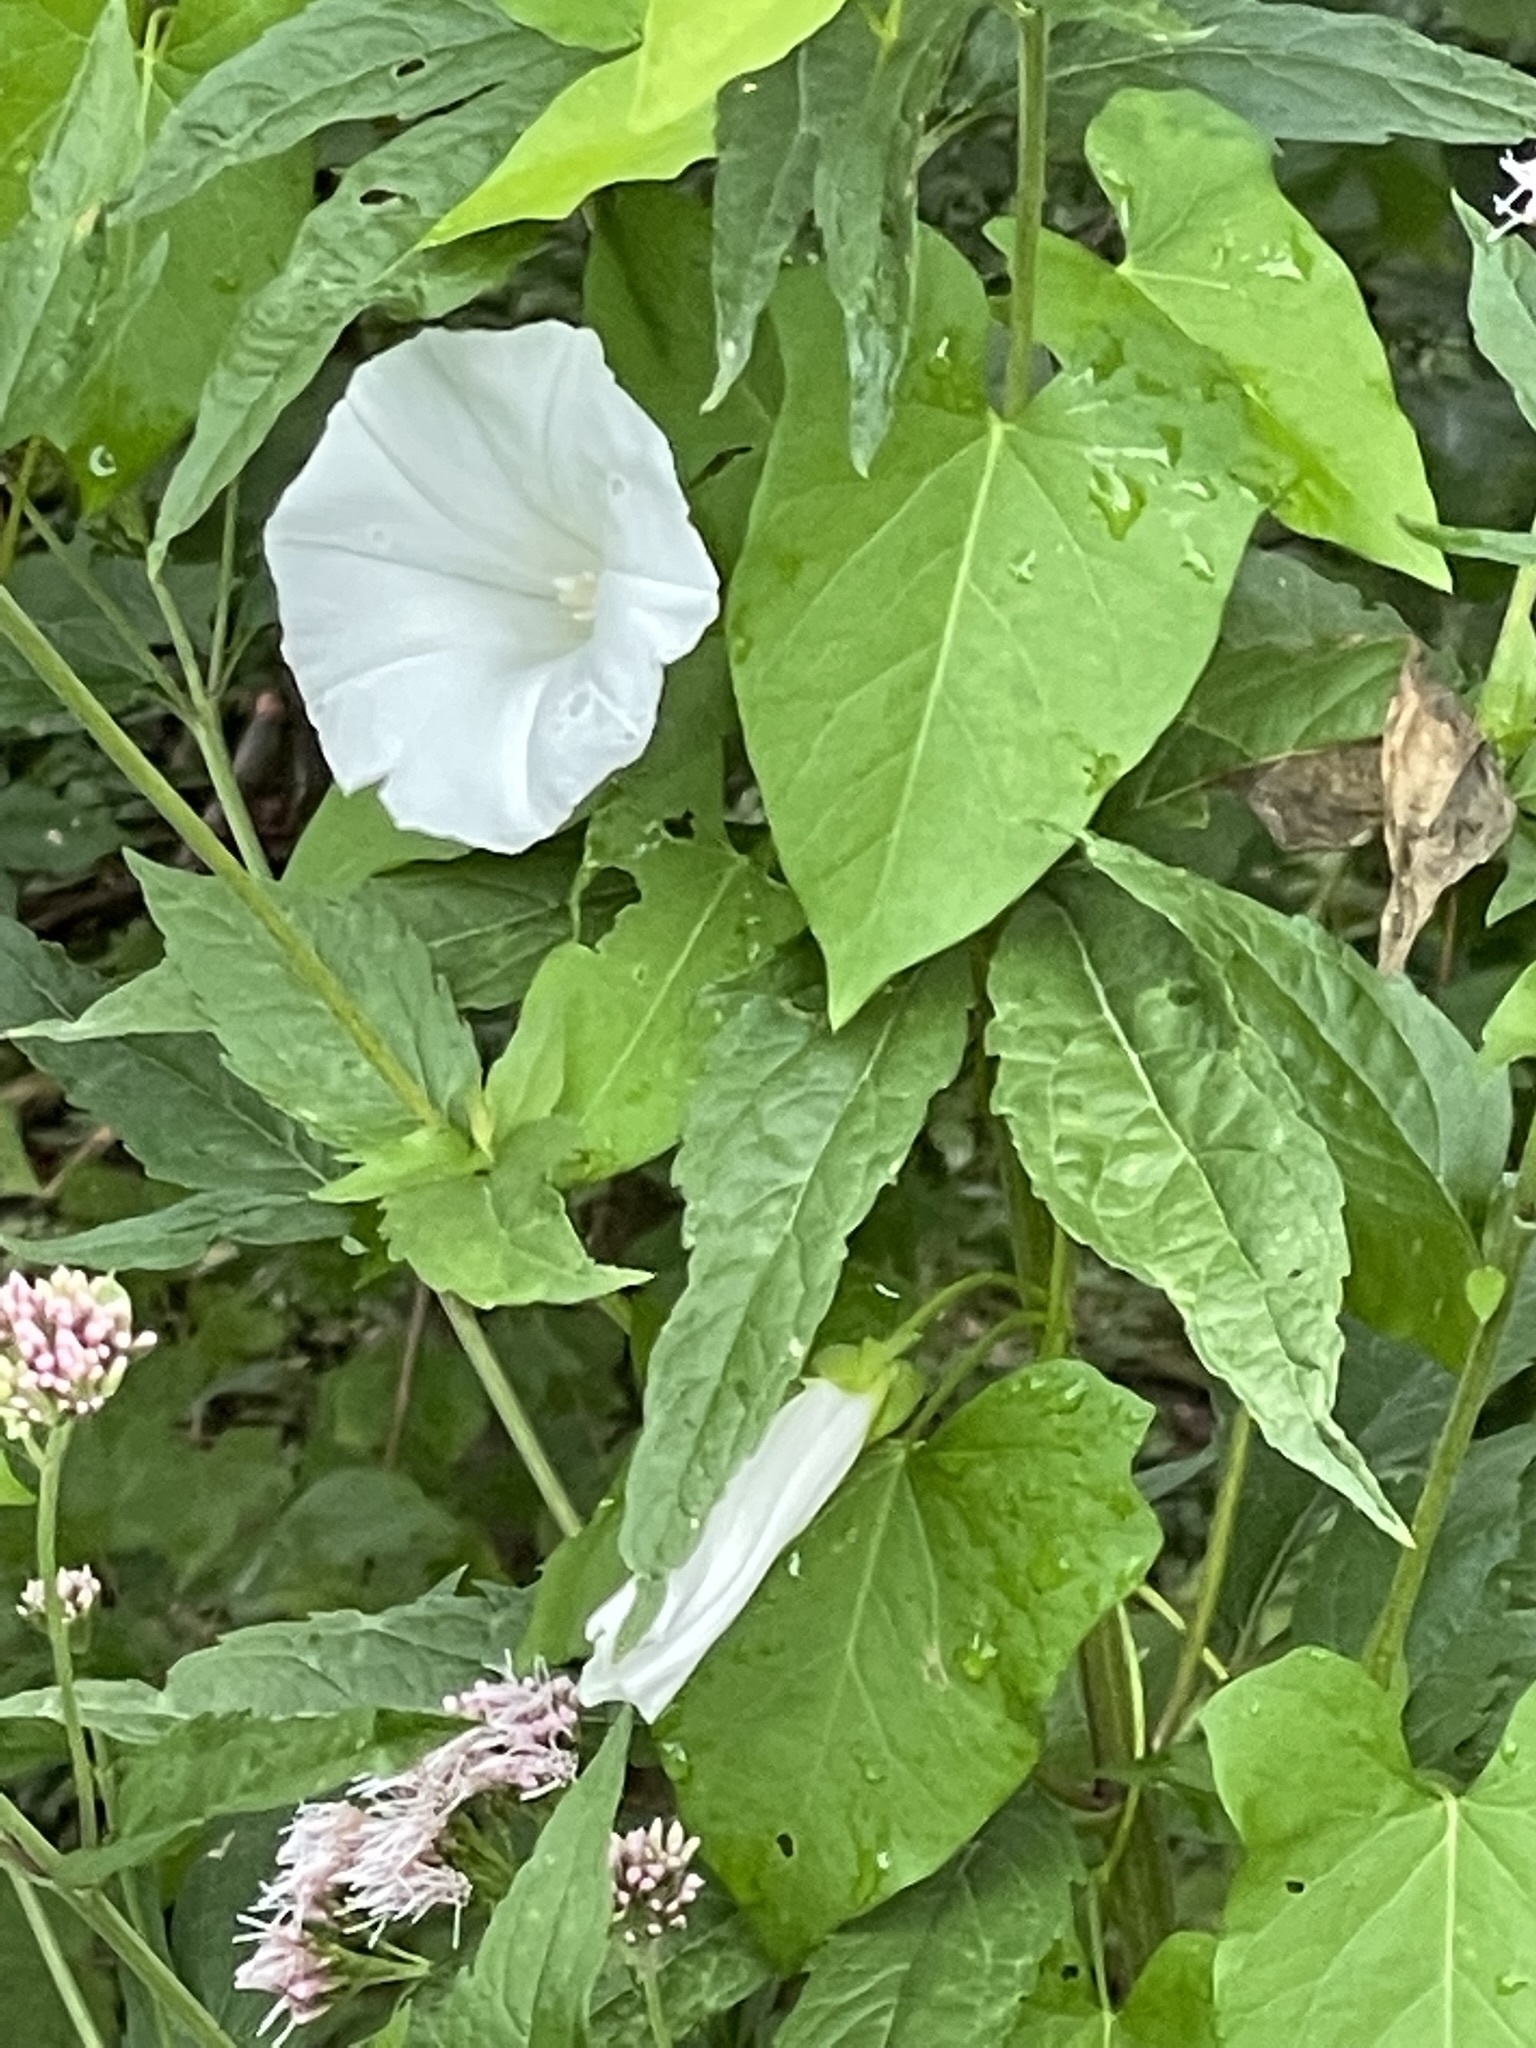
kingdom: Plantae
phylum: Tracheophyta
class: Magnoliopsida
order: Solanales
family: Convolvulaceae
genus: Calystegia
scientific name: Calystegia sepium
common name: Hedge bindweed
